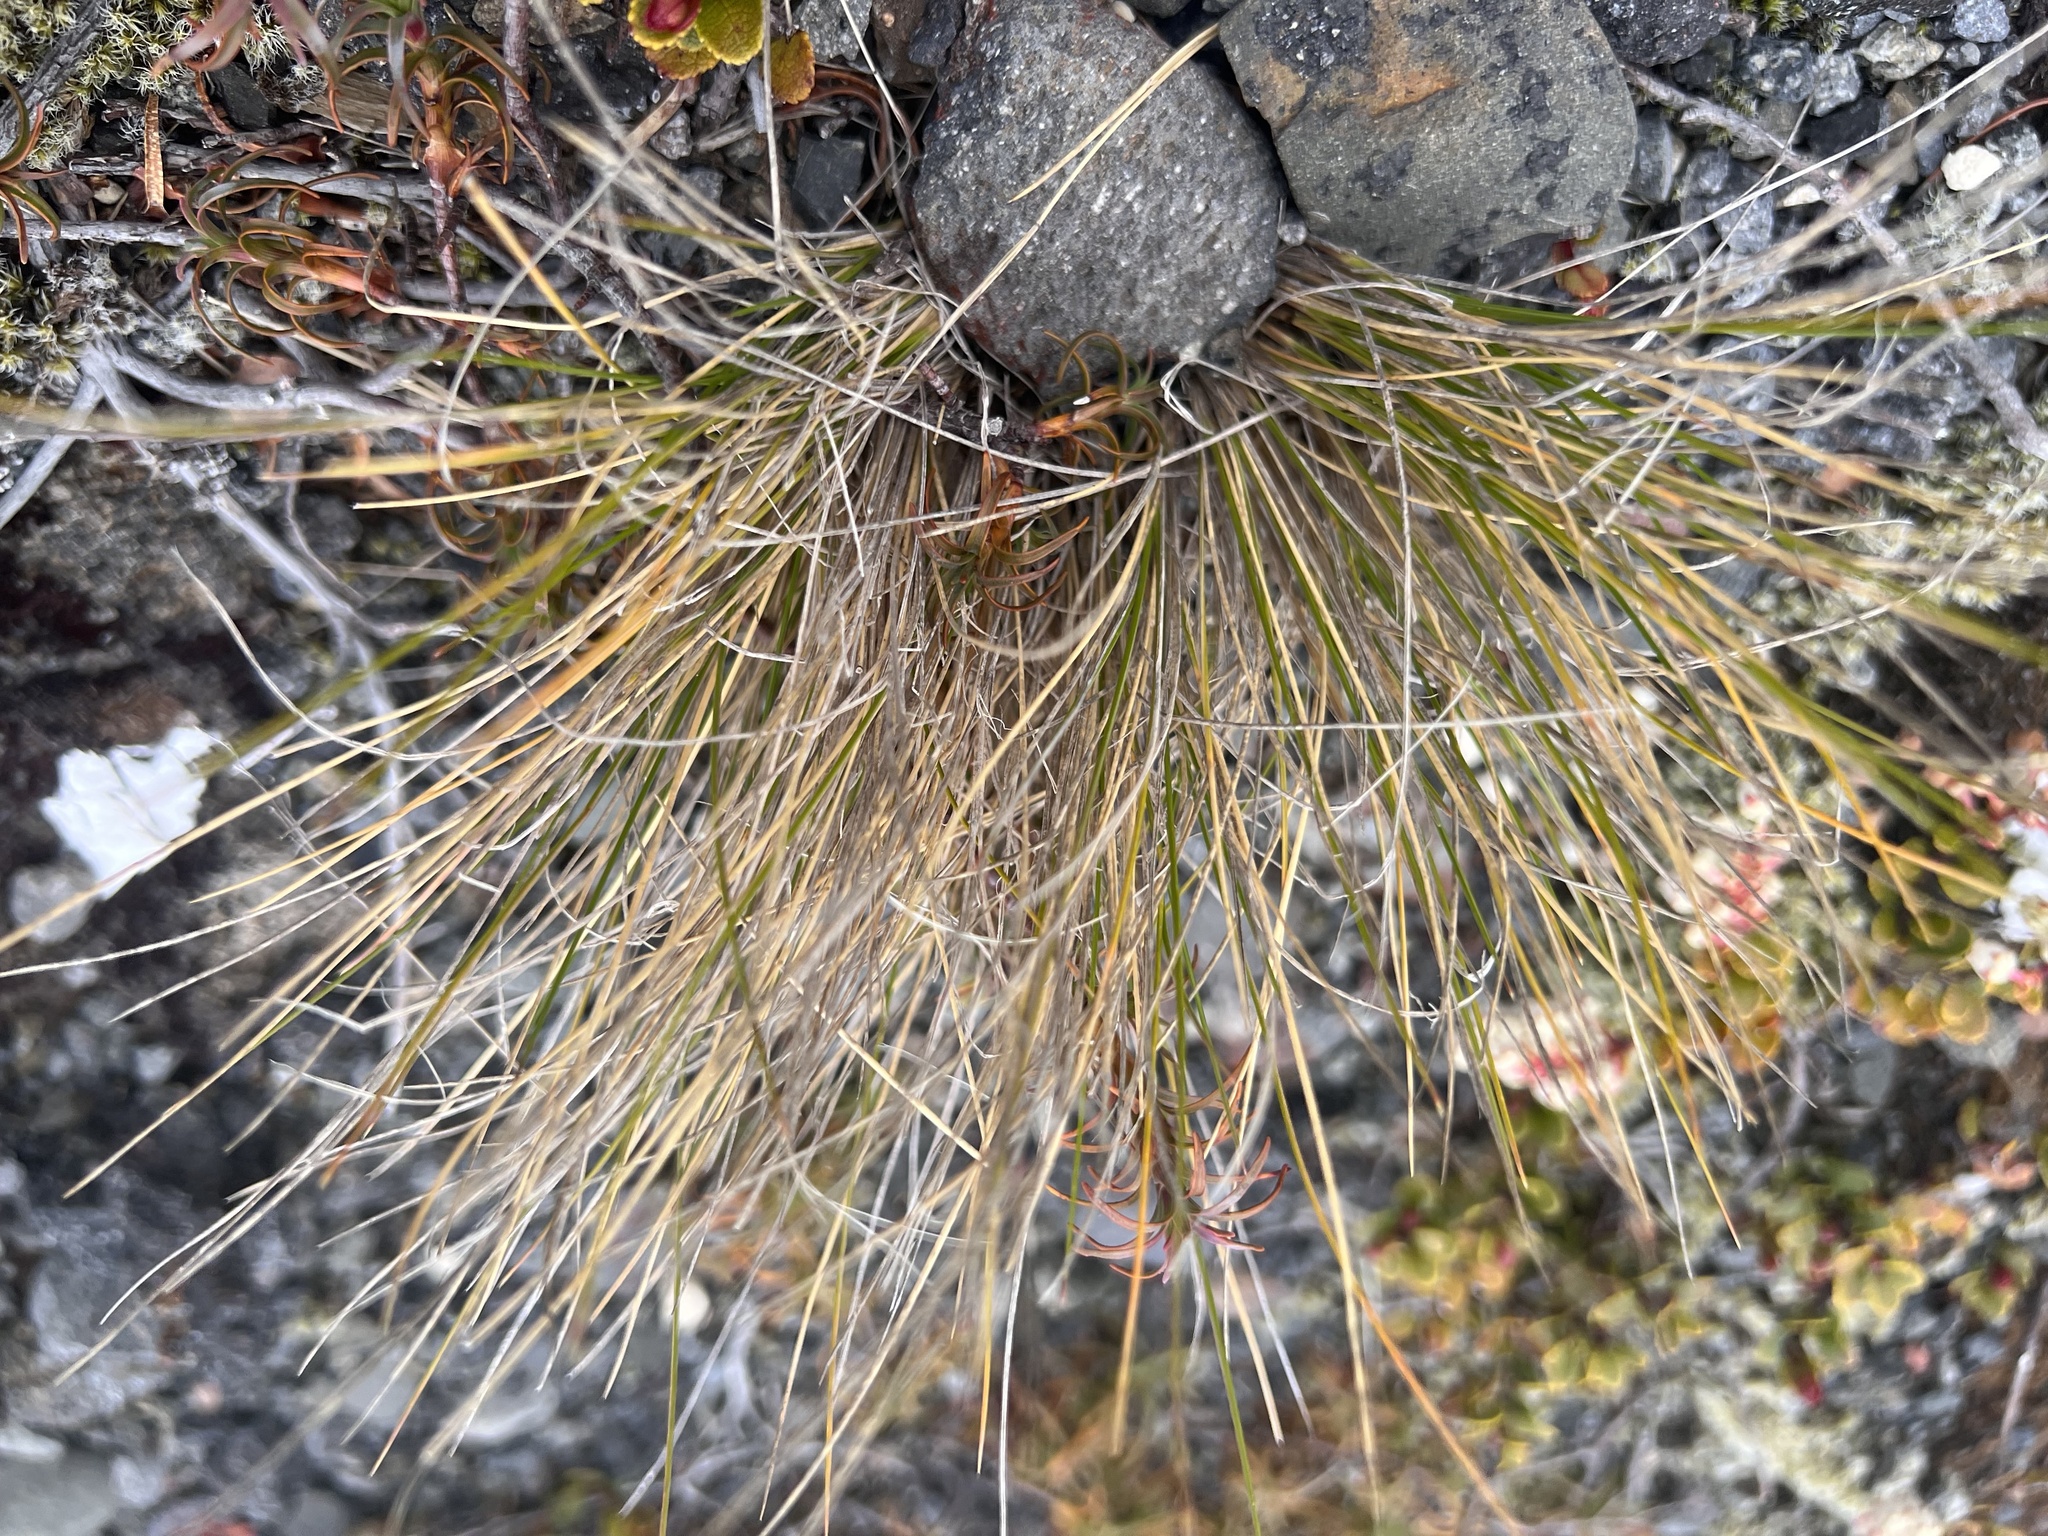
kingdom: Plantae
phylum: Tracheophyta
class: Liliopsida
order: Poales
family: Poaceae
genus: Chionochloa
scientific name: Chionochloa rubra
